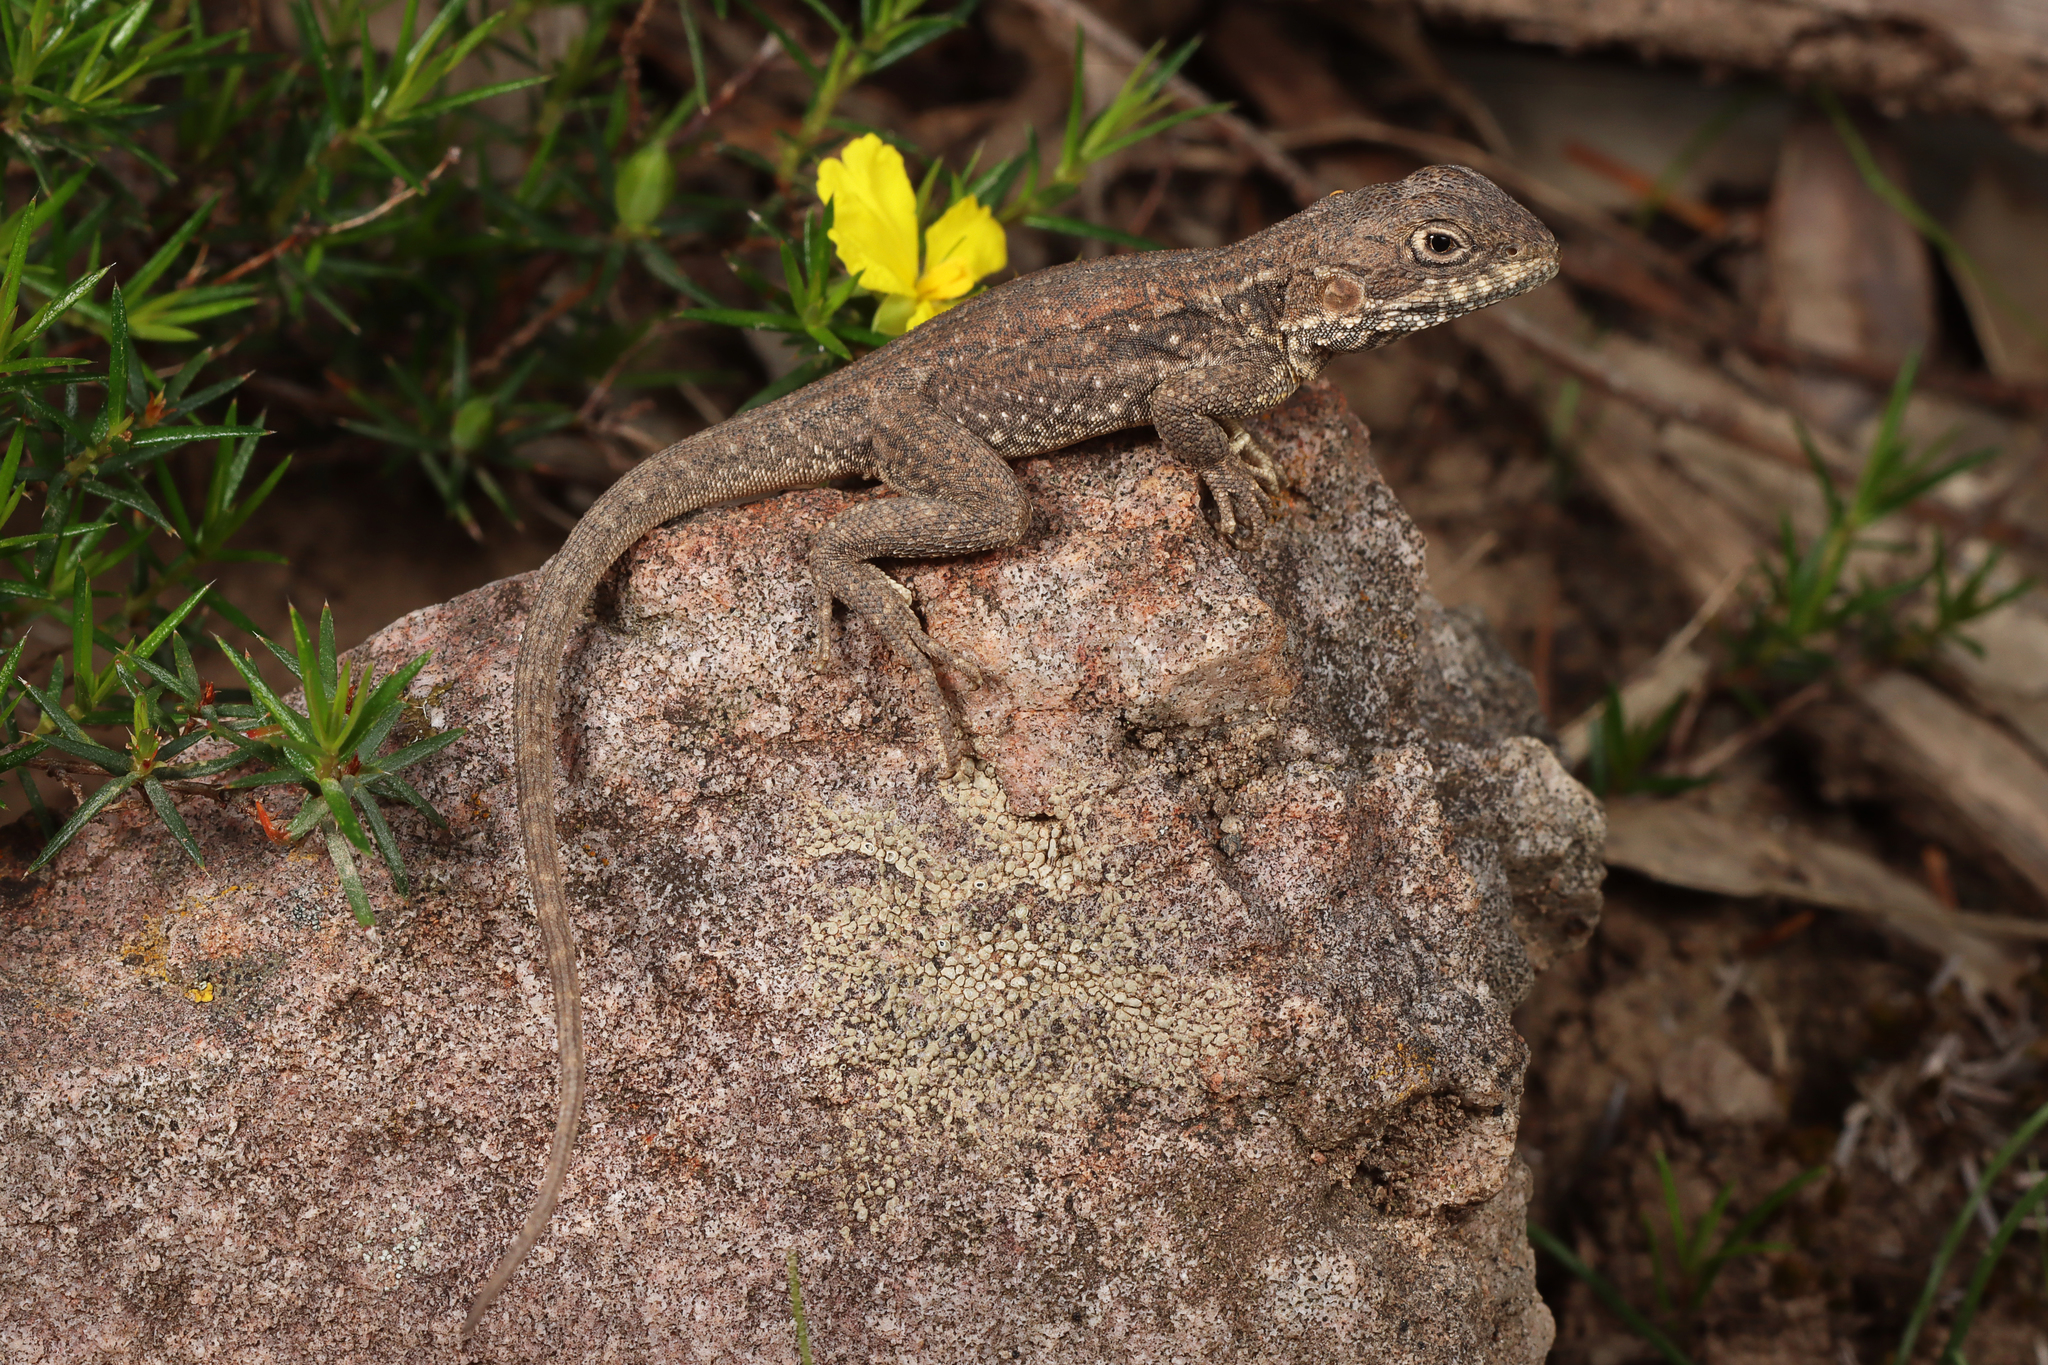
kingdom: Animalia
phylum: Chordata
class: Squamata
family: Agamidae
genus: Ctenophorus
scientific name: Ctenophorus decresii
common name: Tawny dragon
